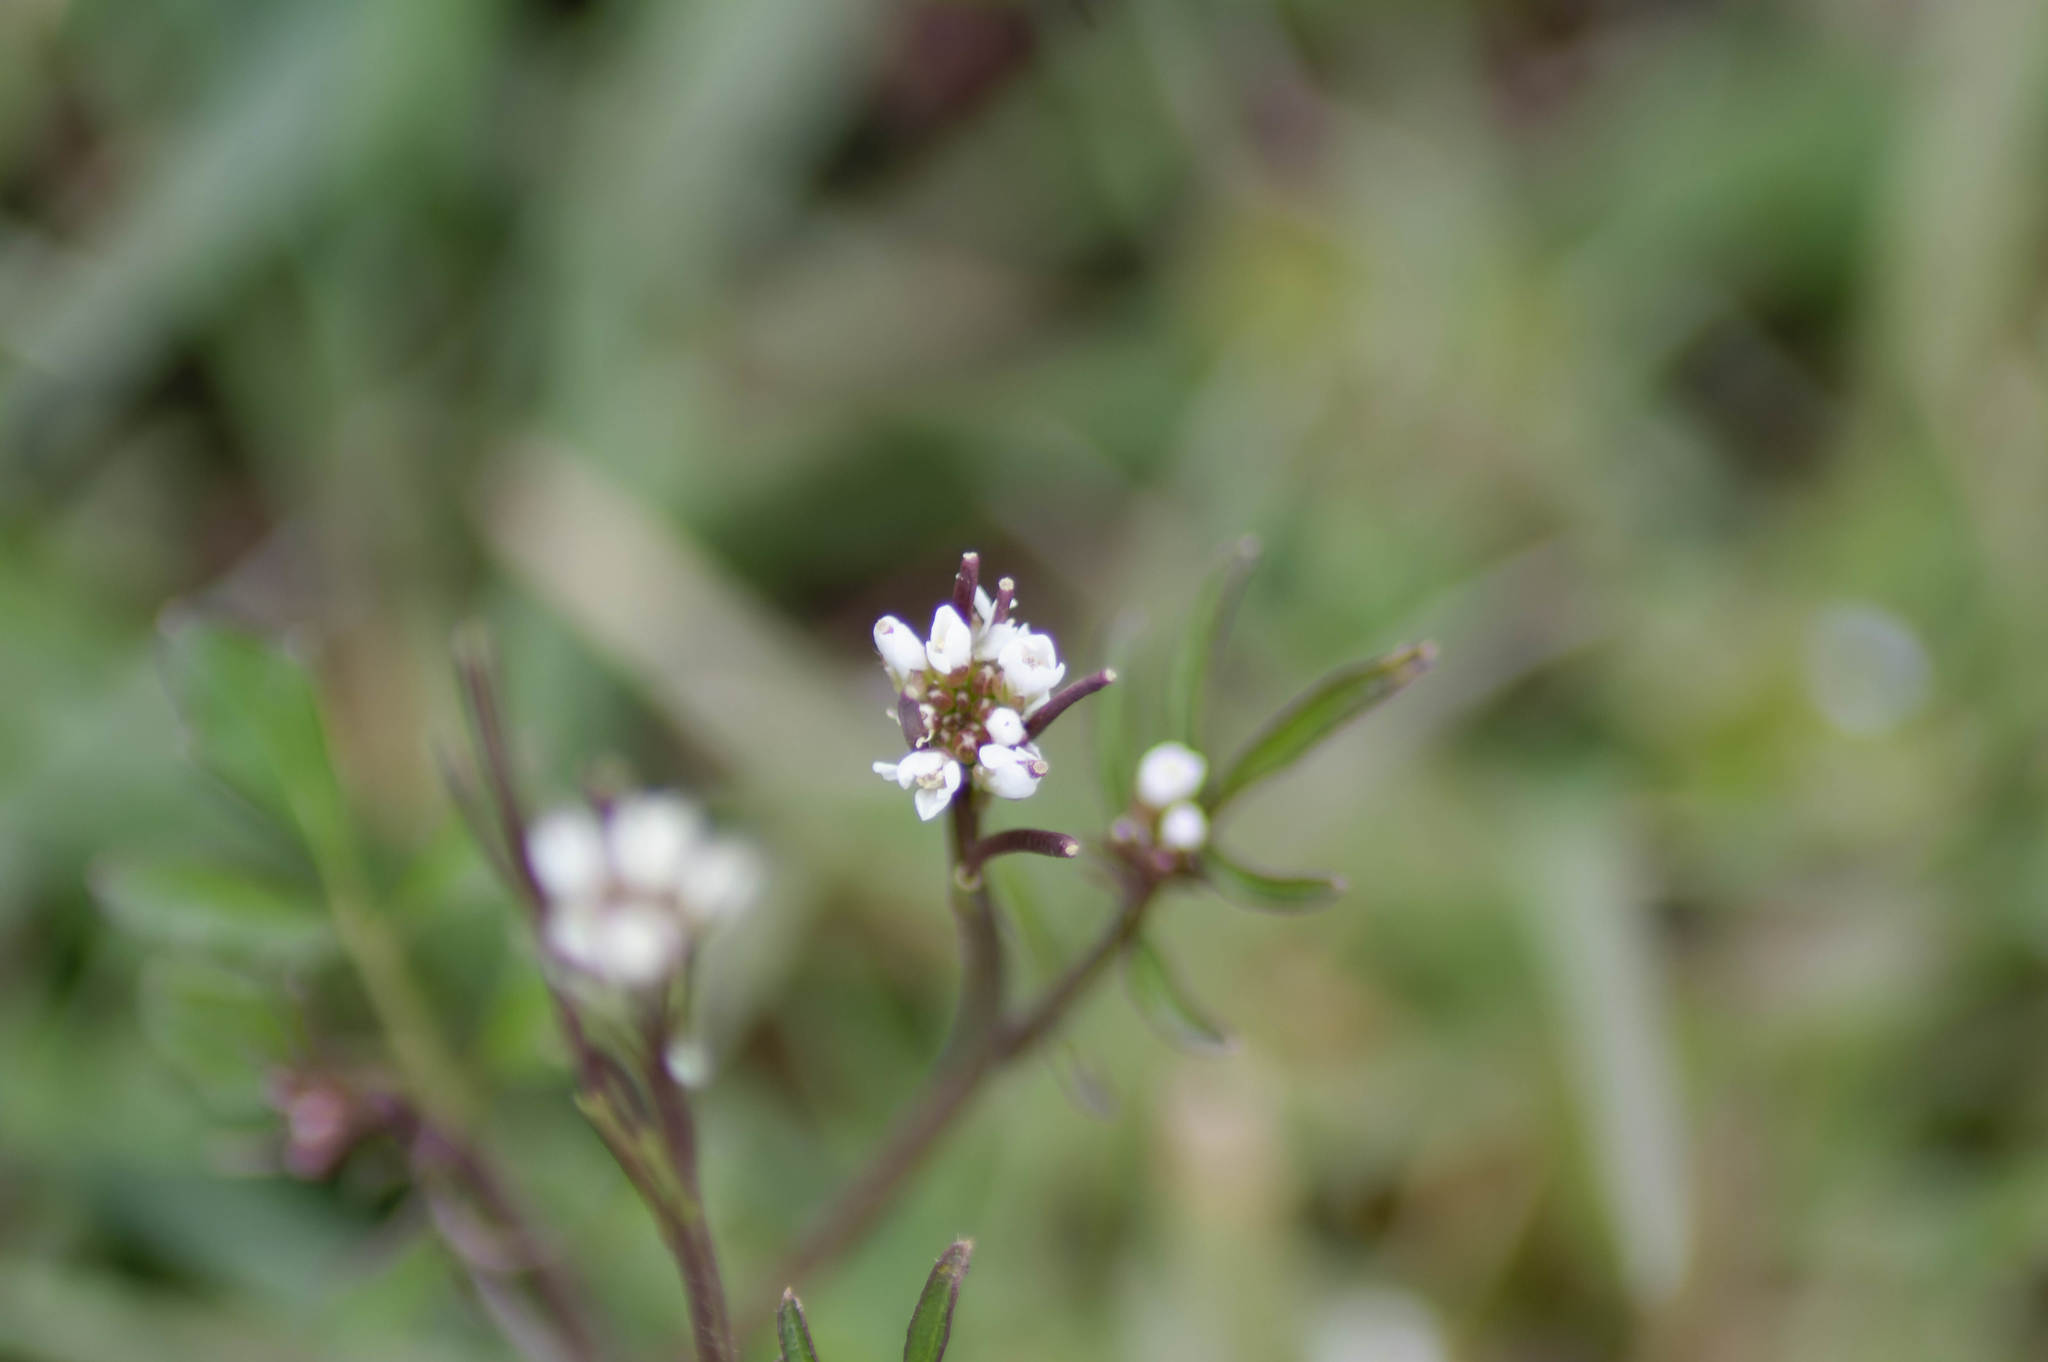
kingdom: Plantae
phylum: Tracheophyta
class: Magnoliopsida
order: Brassicales
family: Brassicaceae
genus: Cardamine
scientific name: Cardamine hirsuta
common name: Hairy bittercress
